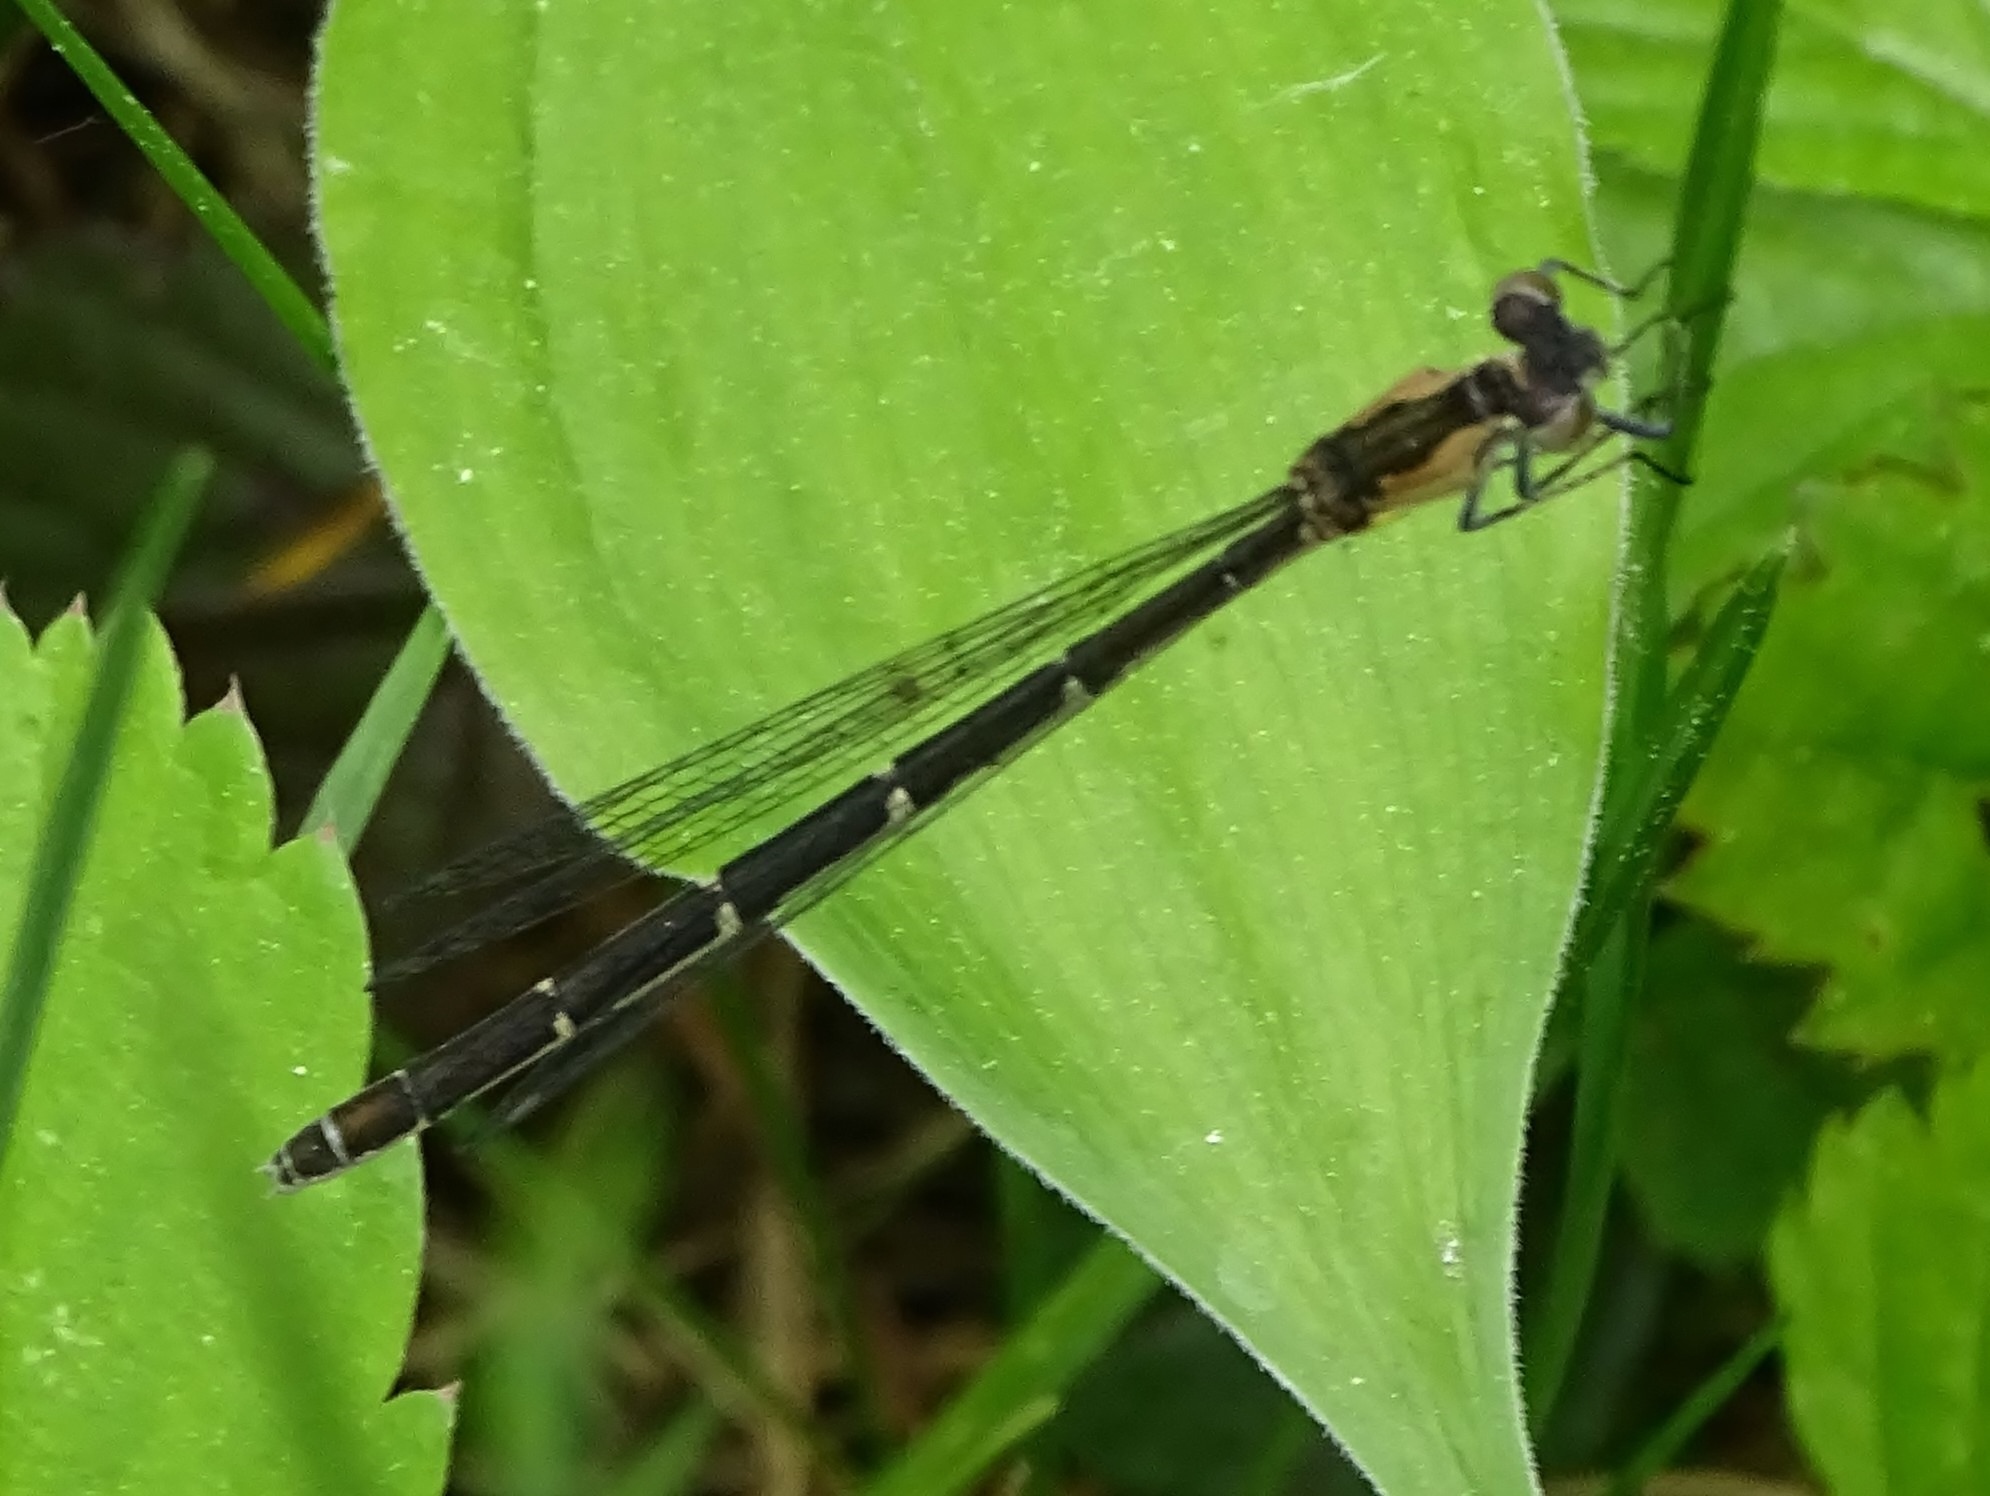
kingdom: Animalia
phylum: Arthropoda
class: Insecta
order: Odonata
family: Coenagrionidae
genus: Chromagrion
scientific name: Chromagrion conditum
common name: Aurora damsel
